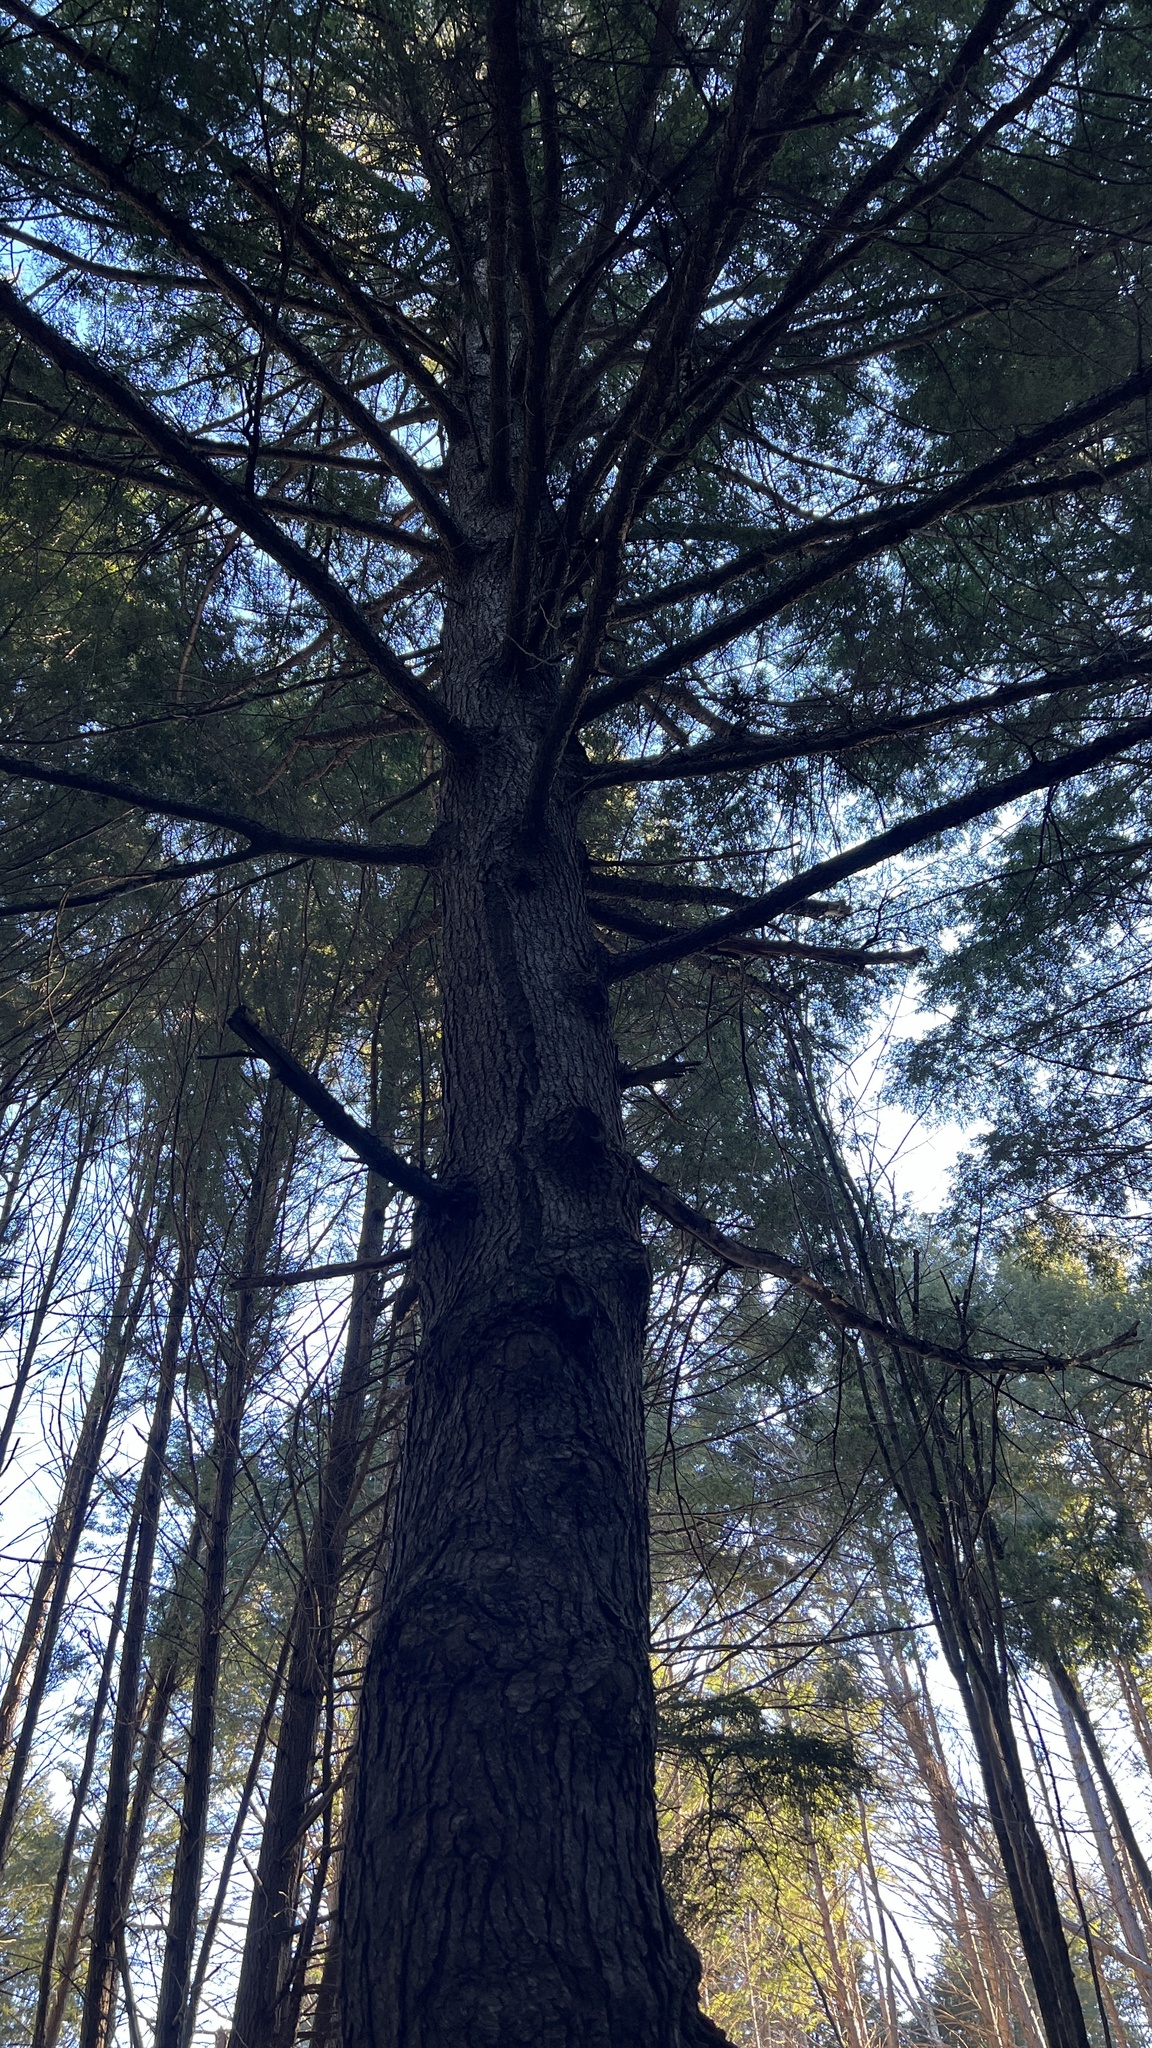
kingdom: Plantae
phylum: Tracheophyta
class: Pinopsida
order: Pinales
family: Pinaceae
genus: Tsuga
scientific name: Tsuga canadensis
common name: Eastern hemlock
